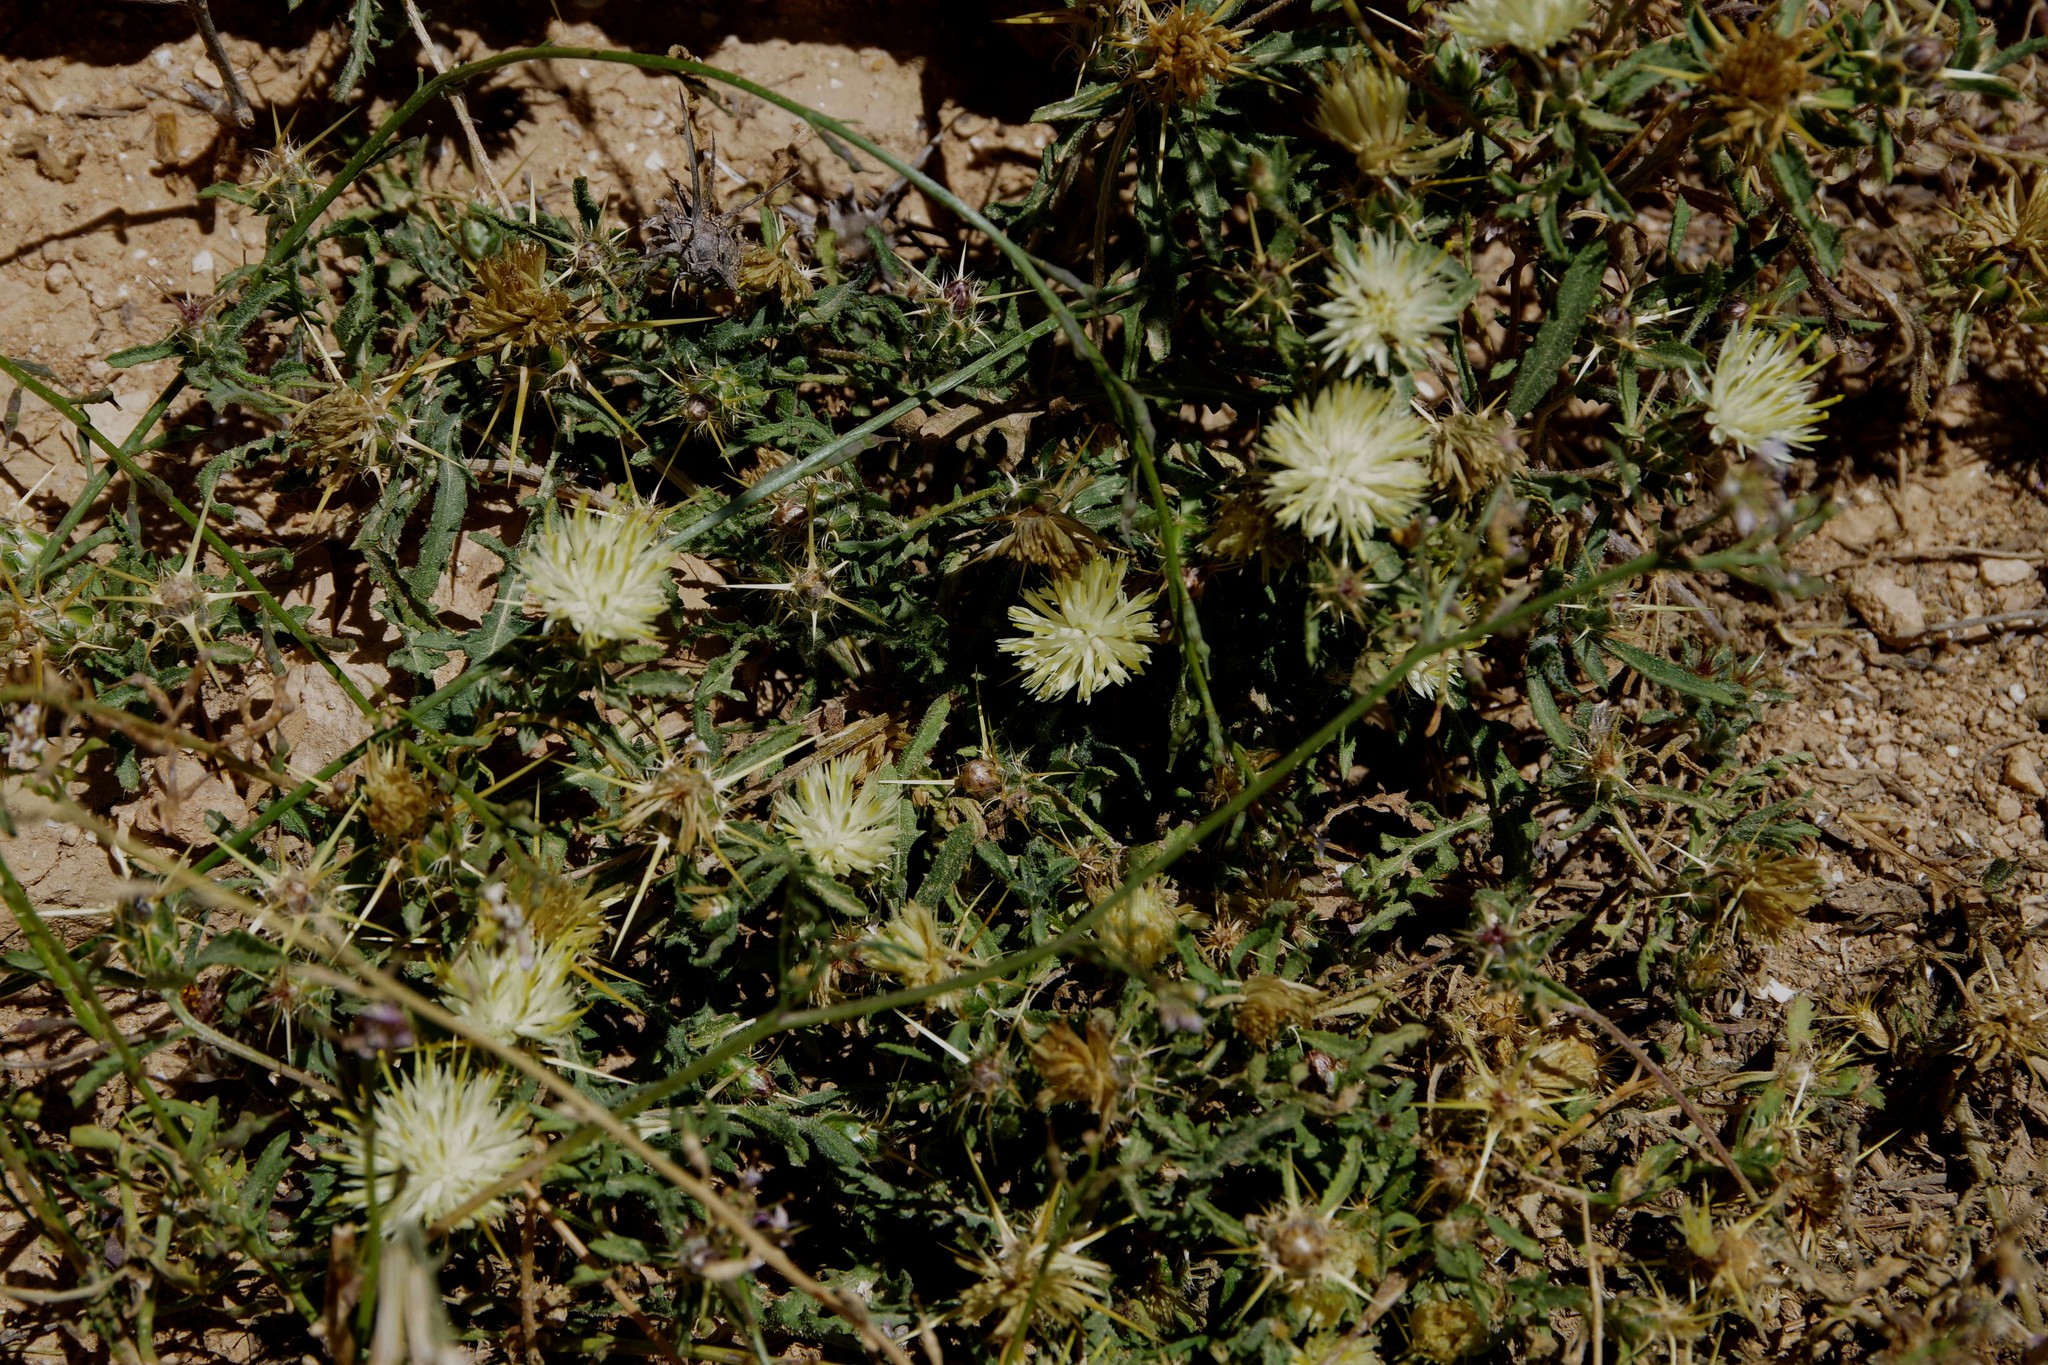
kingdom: Plantae
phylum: Tracheophyta
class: Magnoliopsida
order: Asterales
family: Asteraceae
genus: Centaurea
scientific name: Centaurea pallescens
